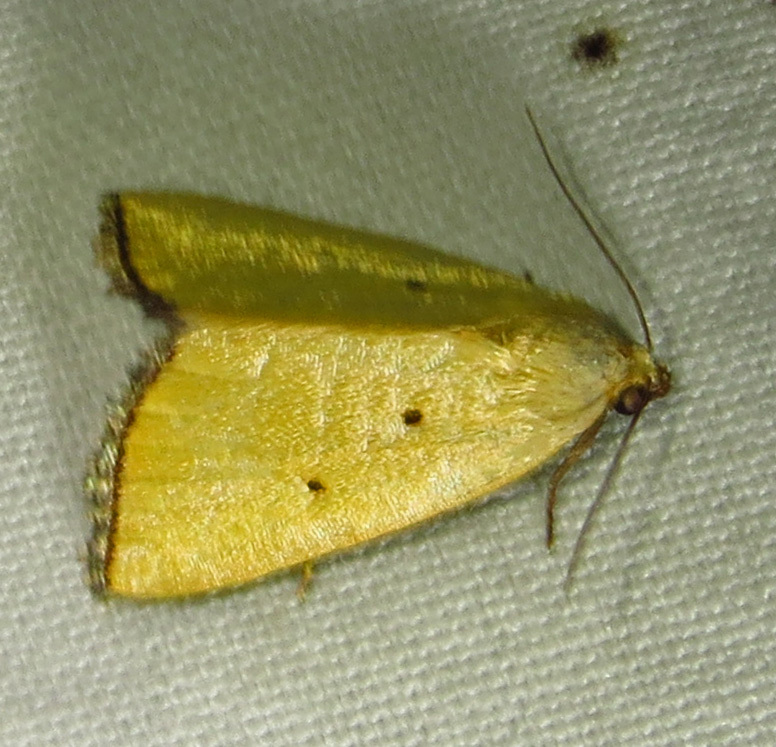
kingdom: Animalia
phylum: Arthropoda
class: Insecta
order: Lepidoptera
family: Noctuidae
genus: Marimatha
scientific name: Marimatha nigrofimbria
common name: Black-bordered lemon moth
